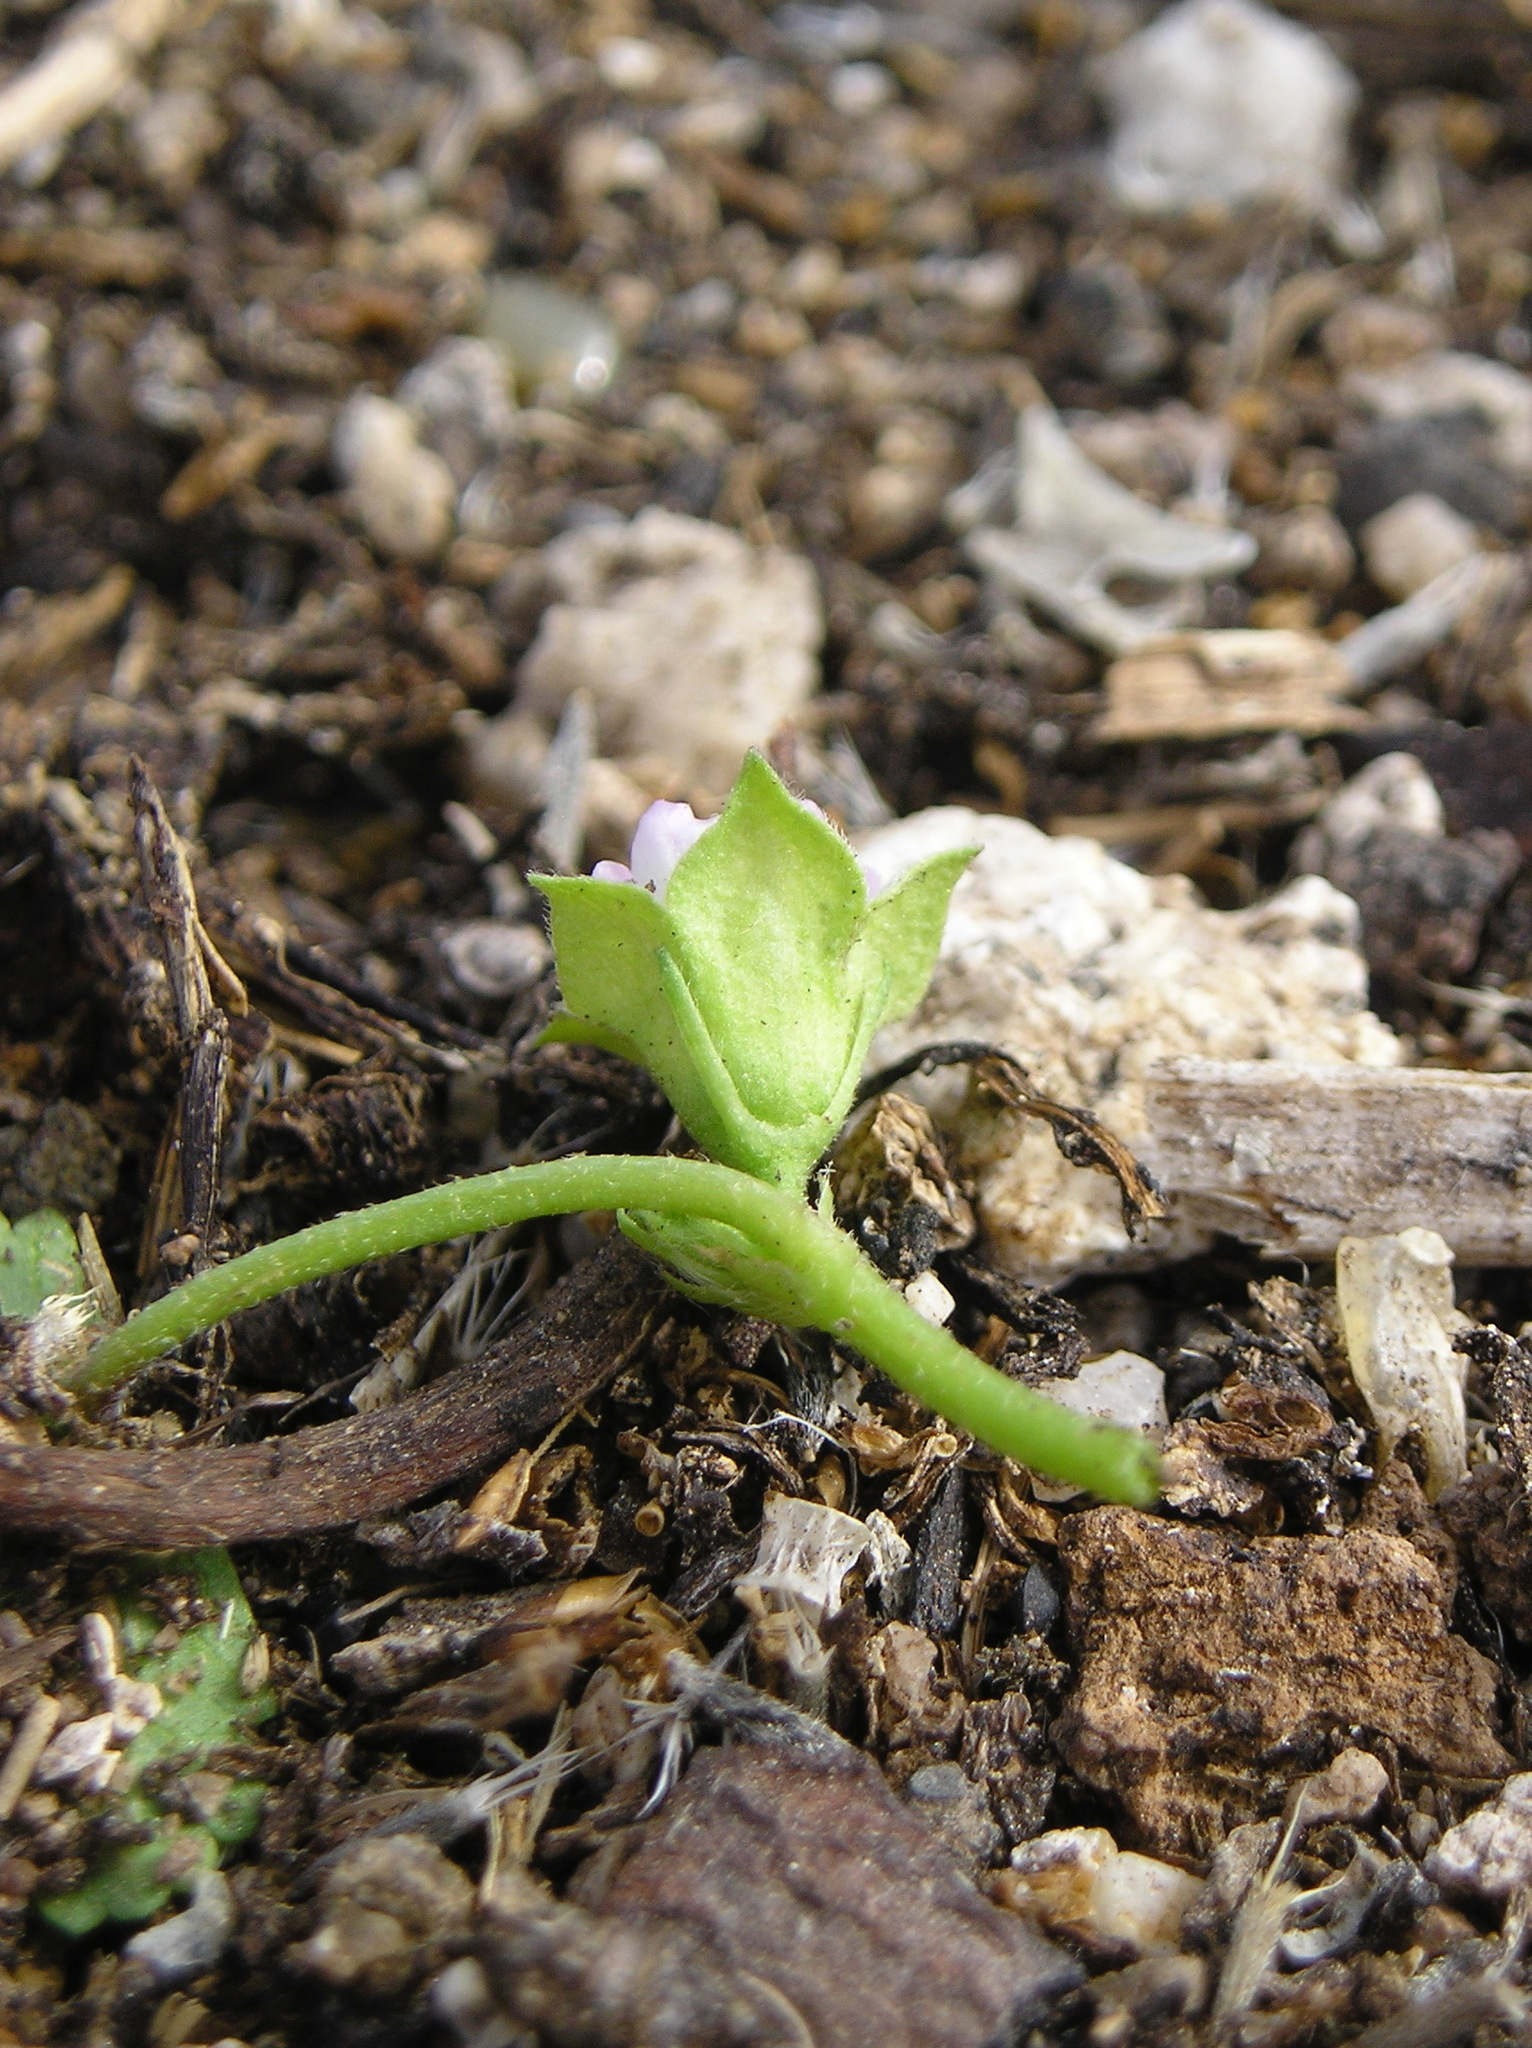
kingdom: Plantae
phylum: Tracheophyta
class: Magnoliopsida
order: Malvales
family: Malvaceae
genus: Malva
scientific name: Malva parviflora
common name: Least mallow
